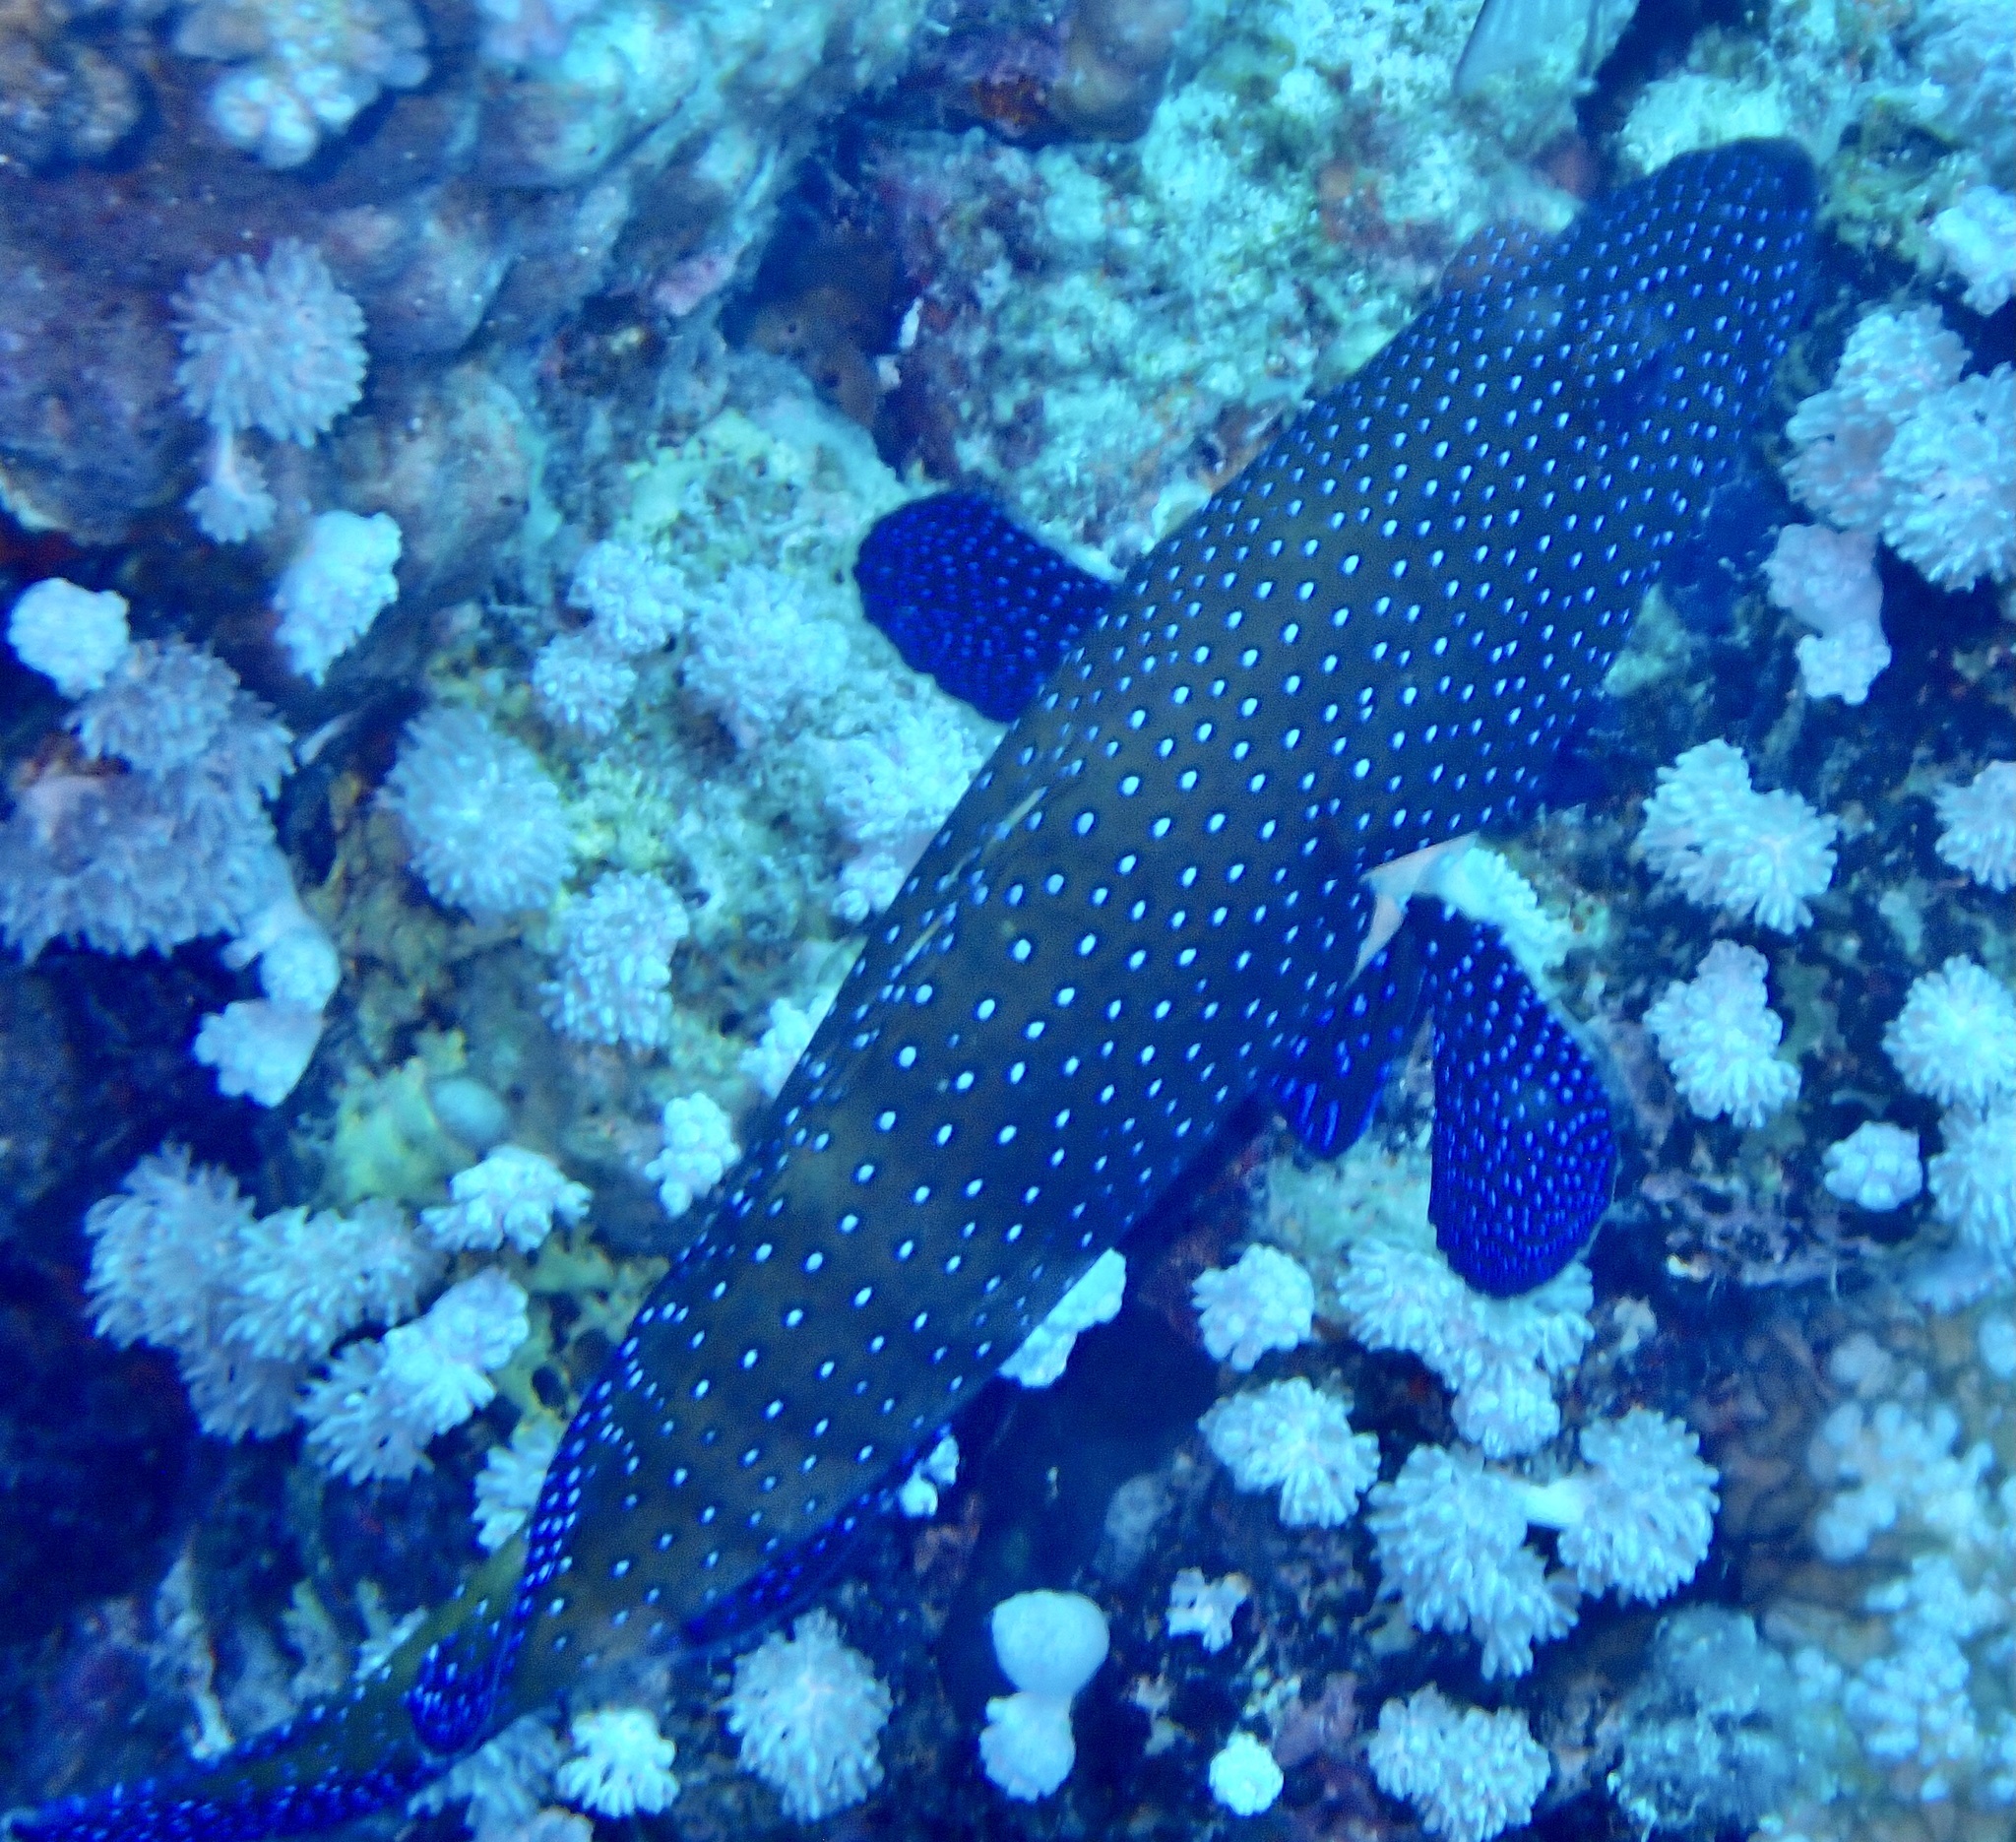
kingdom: Animalia
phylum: Chordata
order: Perciformes
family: Serranidae
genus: Cephalopholis
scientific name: Cephalopholis argus
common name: Peacock grouper
